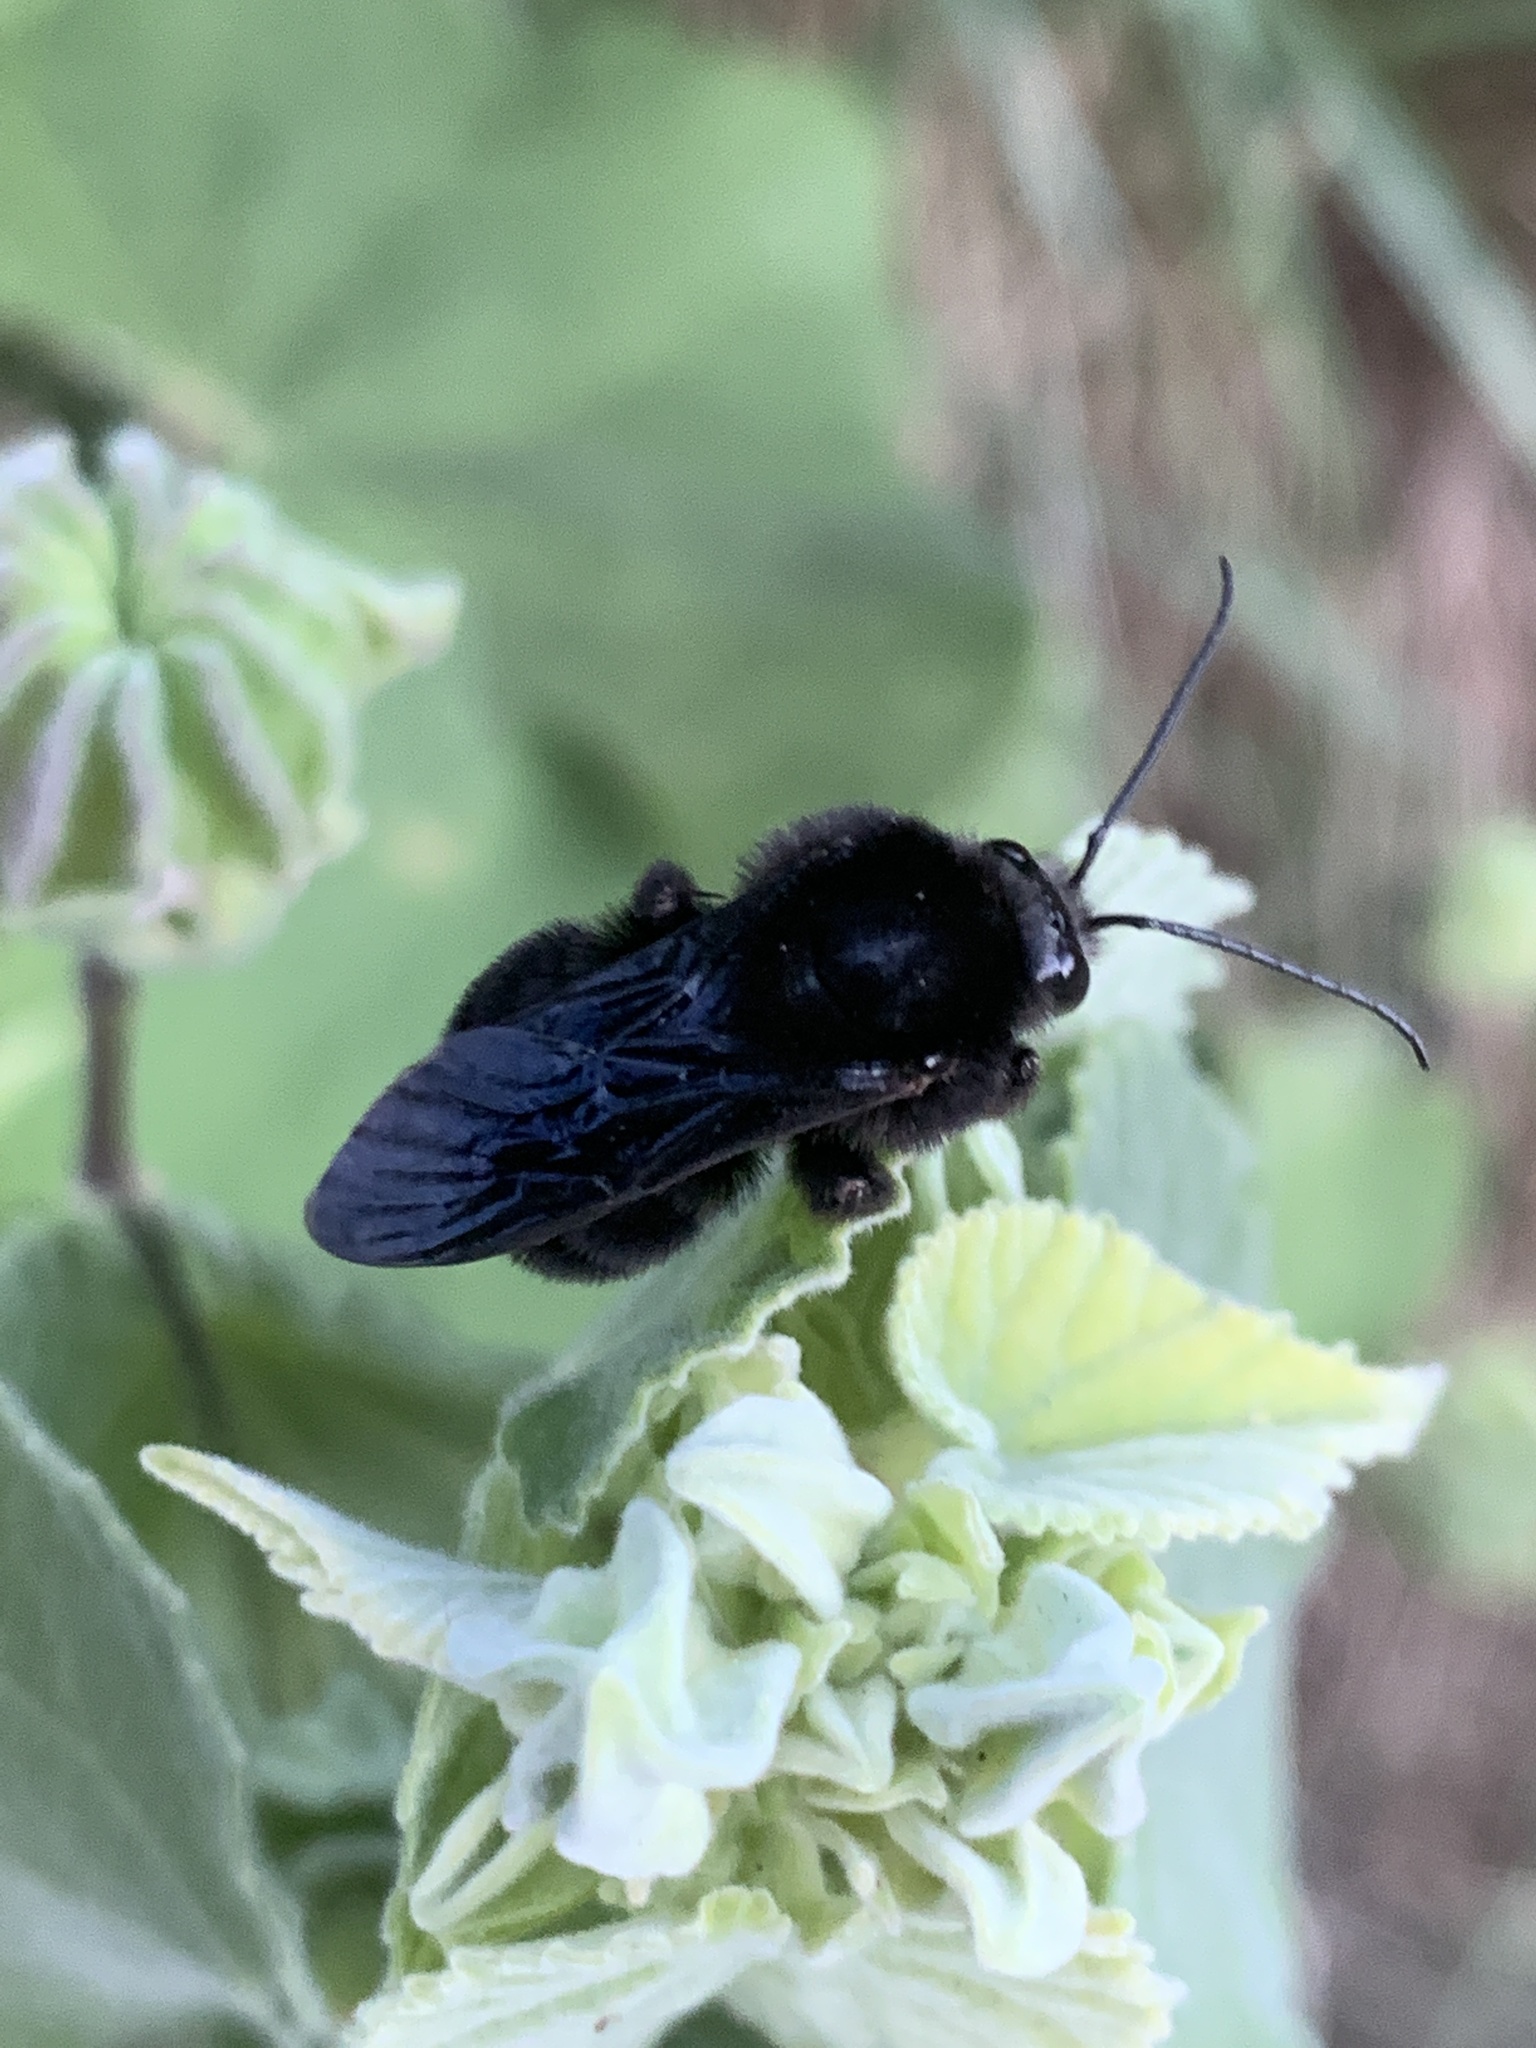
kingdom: Animalia
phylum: Arthropoda
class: Insecta
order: Hymenoptera
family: Apidae
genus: Bombus
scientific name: Bombus pauloensis
